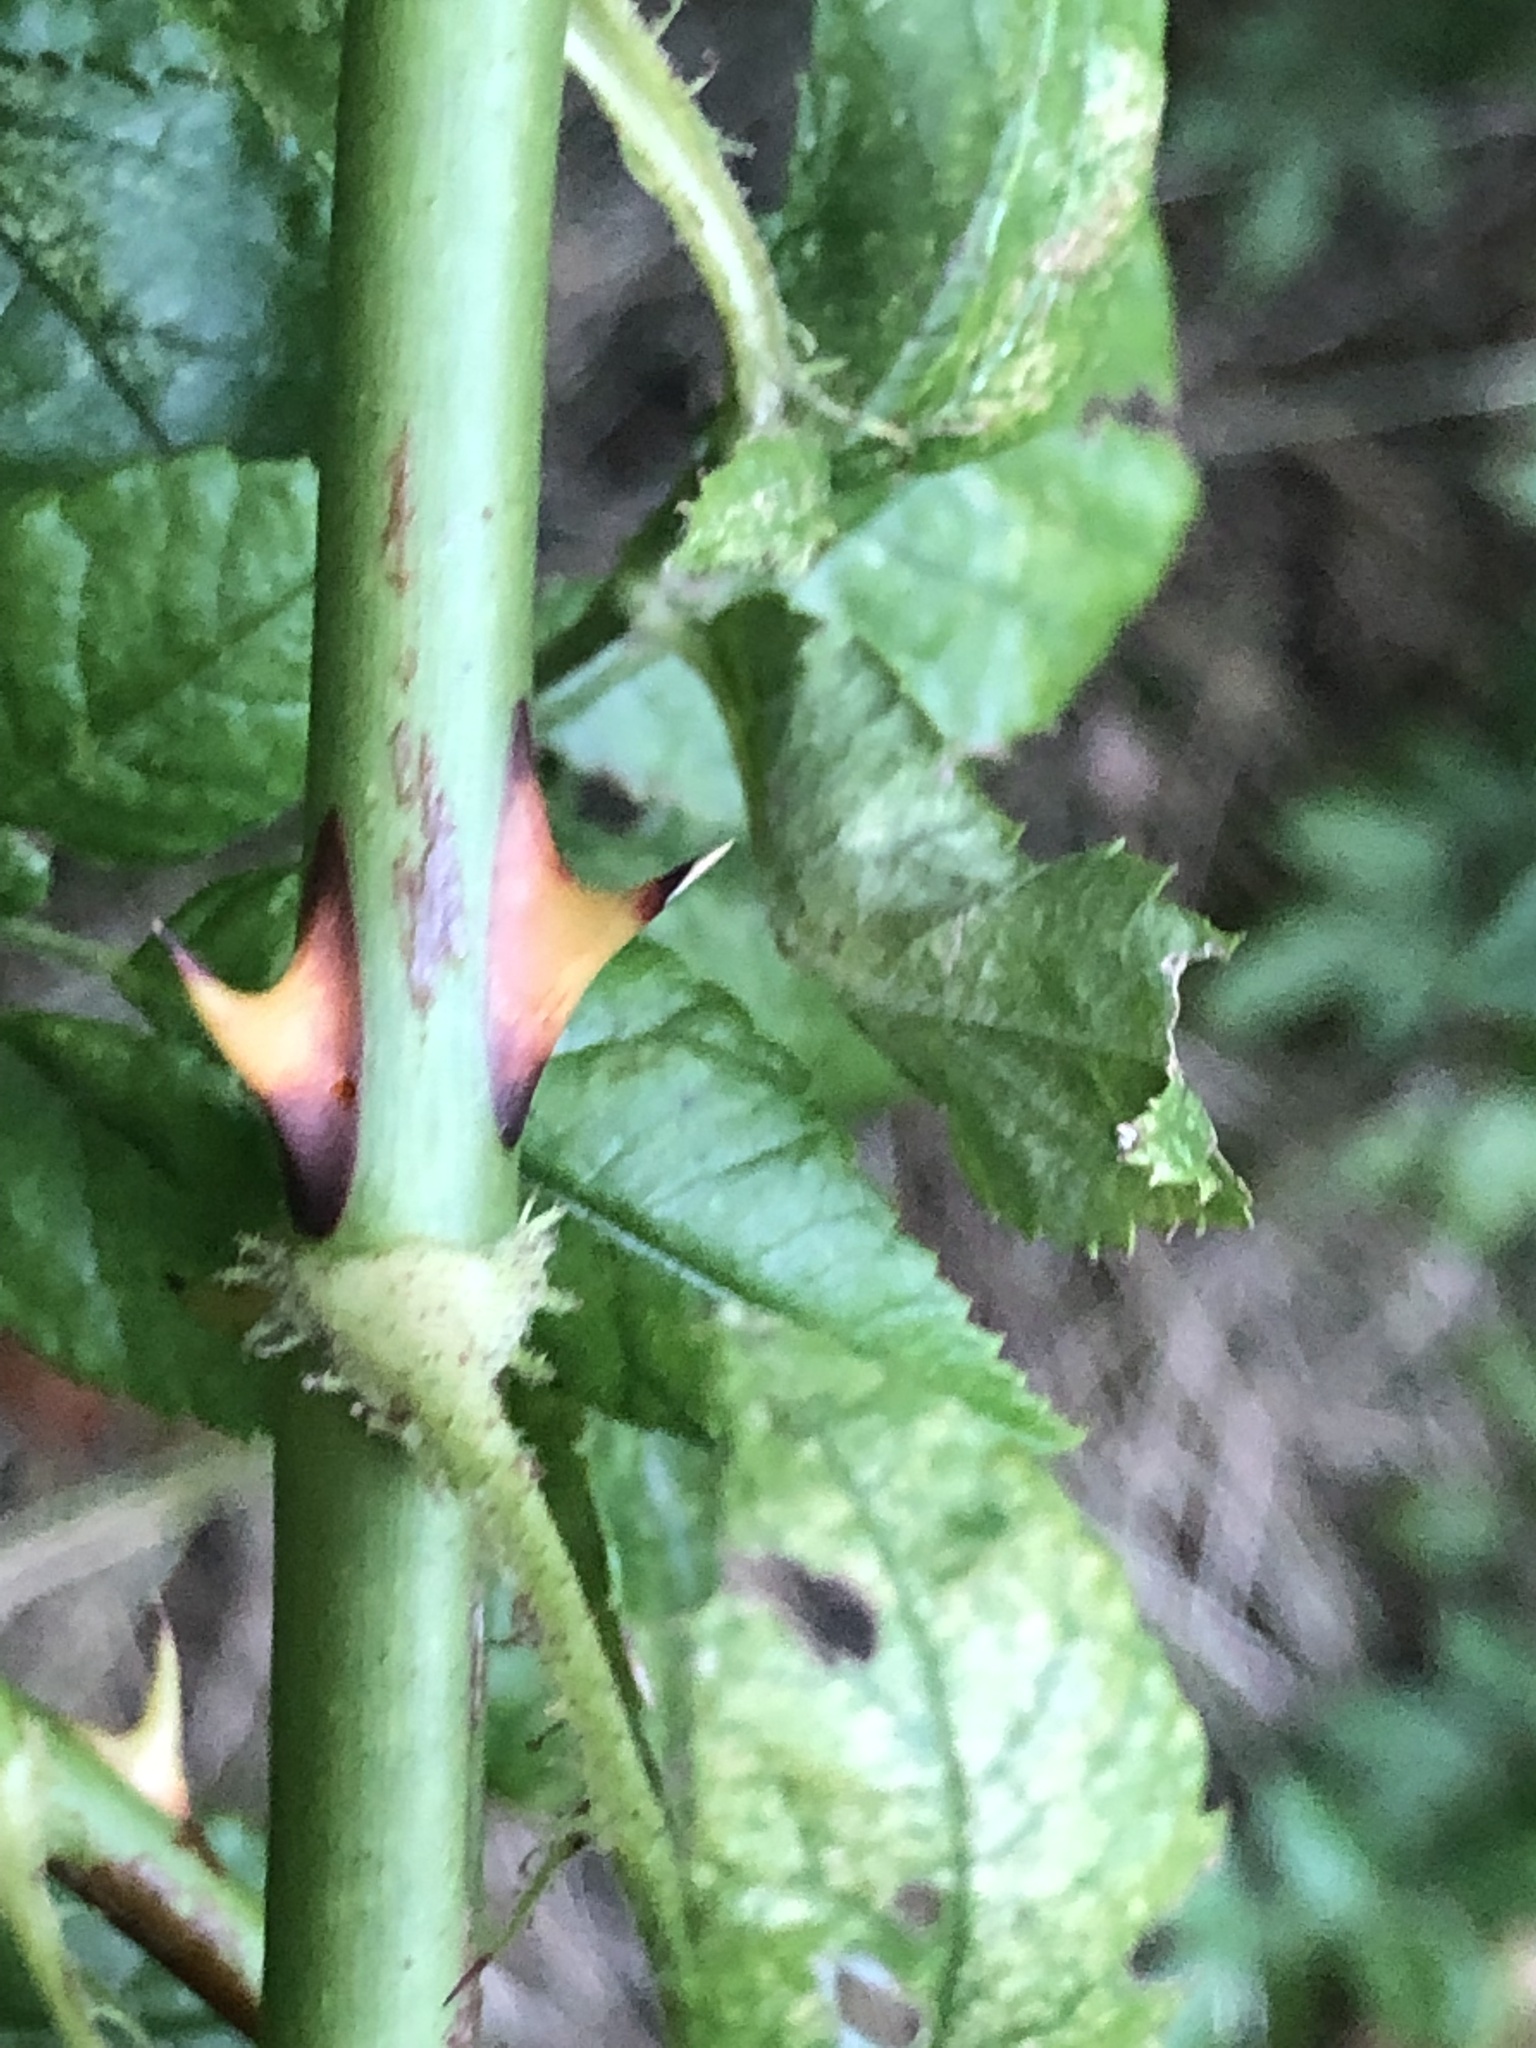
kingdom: Plantae
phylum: Tracheophyta
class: Magnoliopsida
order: Rosales
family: Rosaceae
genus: Rosa
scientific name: Rosa multiflora
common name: Multiflora rose
